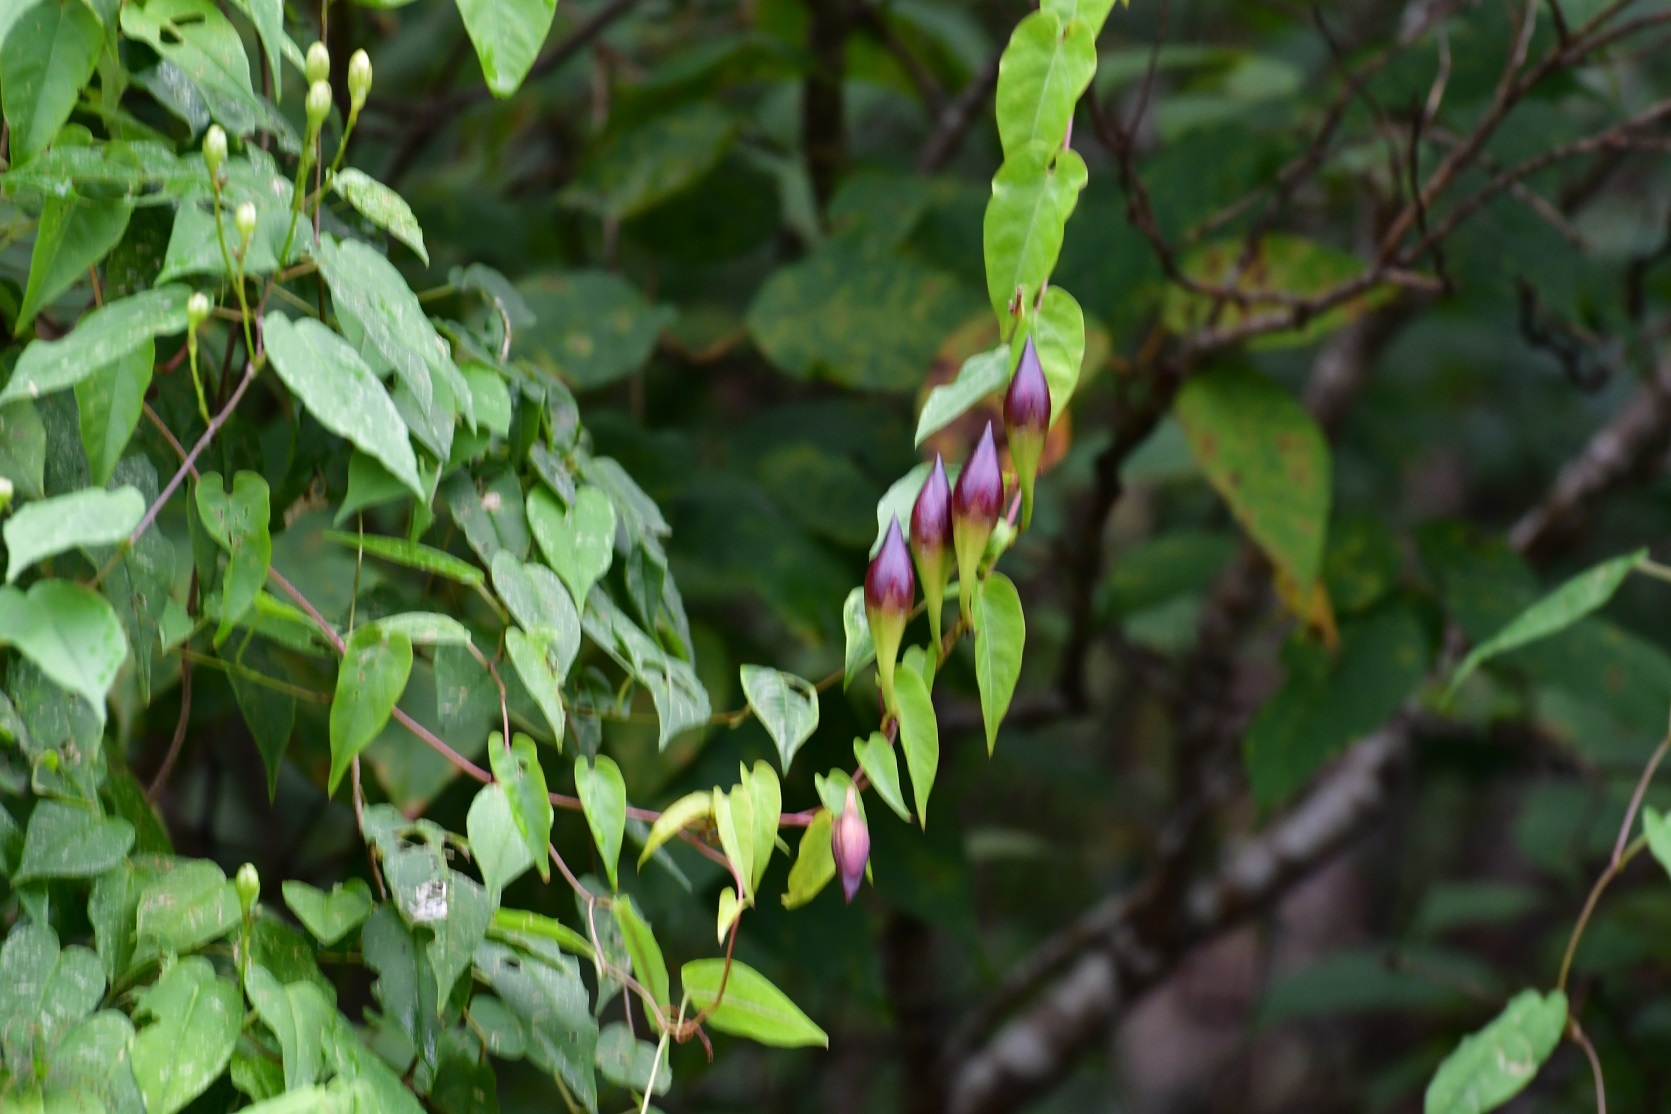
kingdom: Plantae
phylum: Tracheophyta
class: Magnoliopsida
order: Solanales
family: Convolvulaceae
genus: Operculina
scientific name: Operculina pteripes
